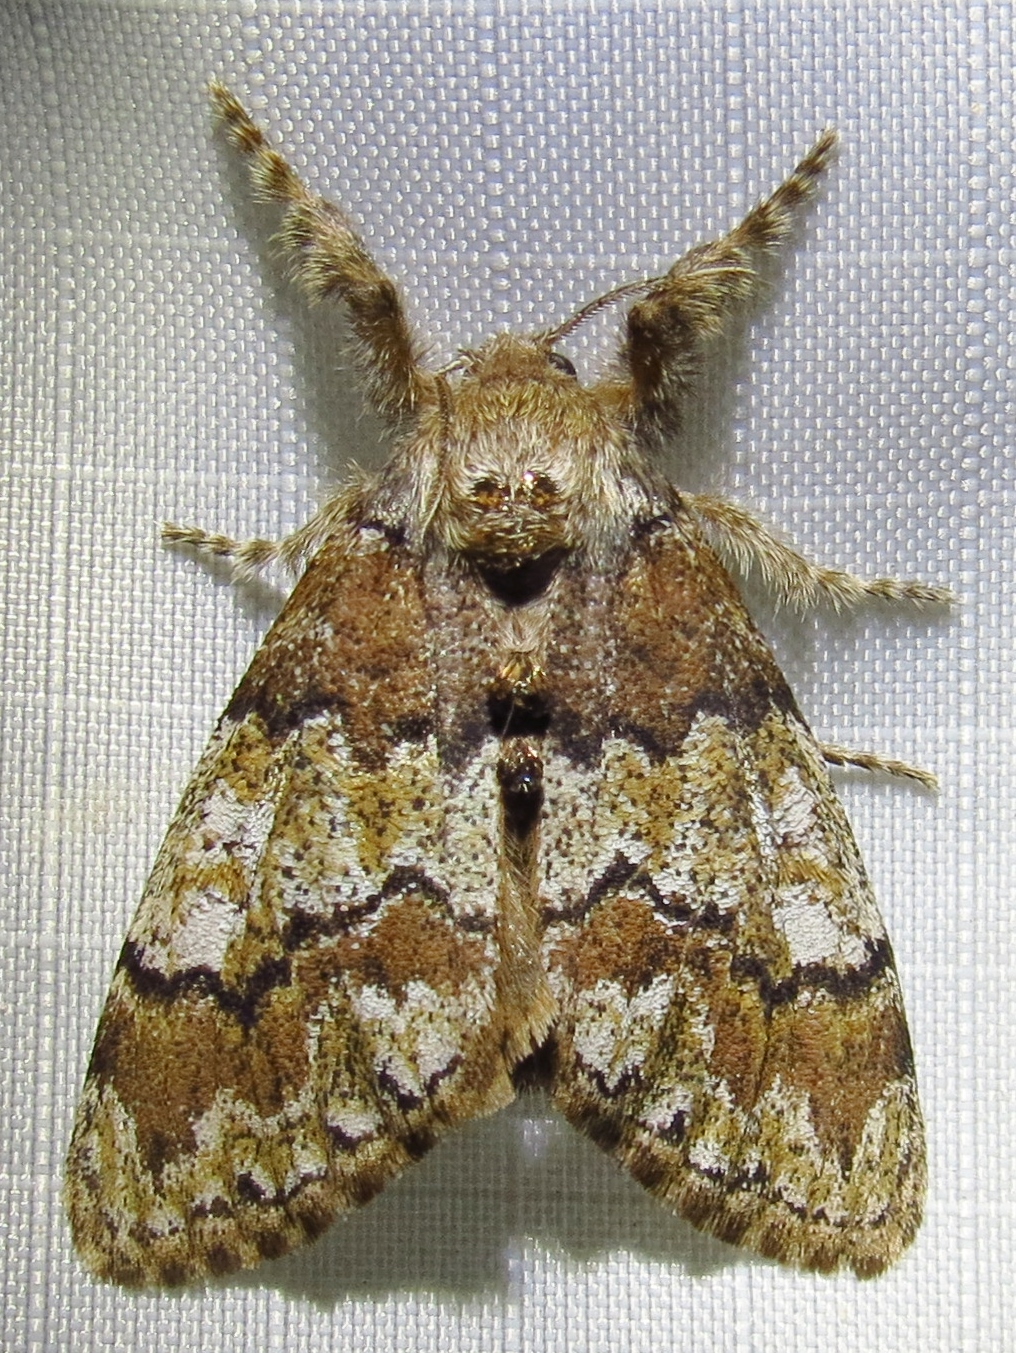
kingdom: Animalia
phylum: Arthropoda
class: Insecta
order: Lepidoptera
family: Erebidae
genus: Dasychira
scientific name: Dasychira manto
